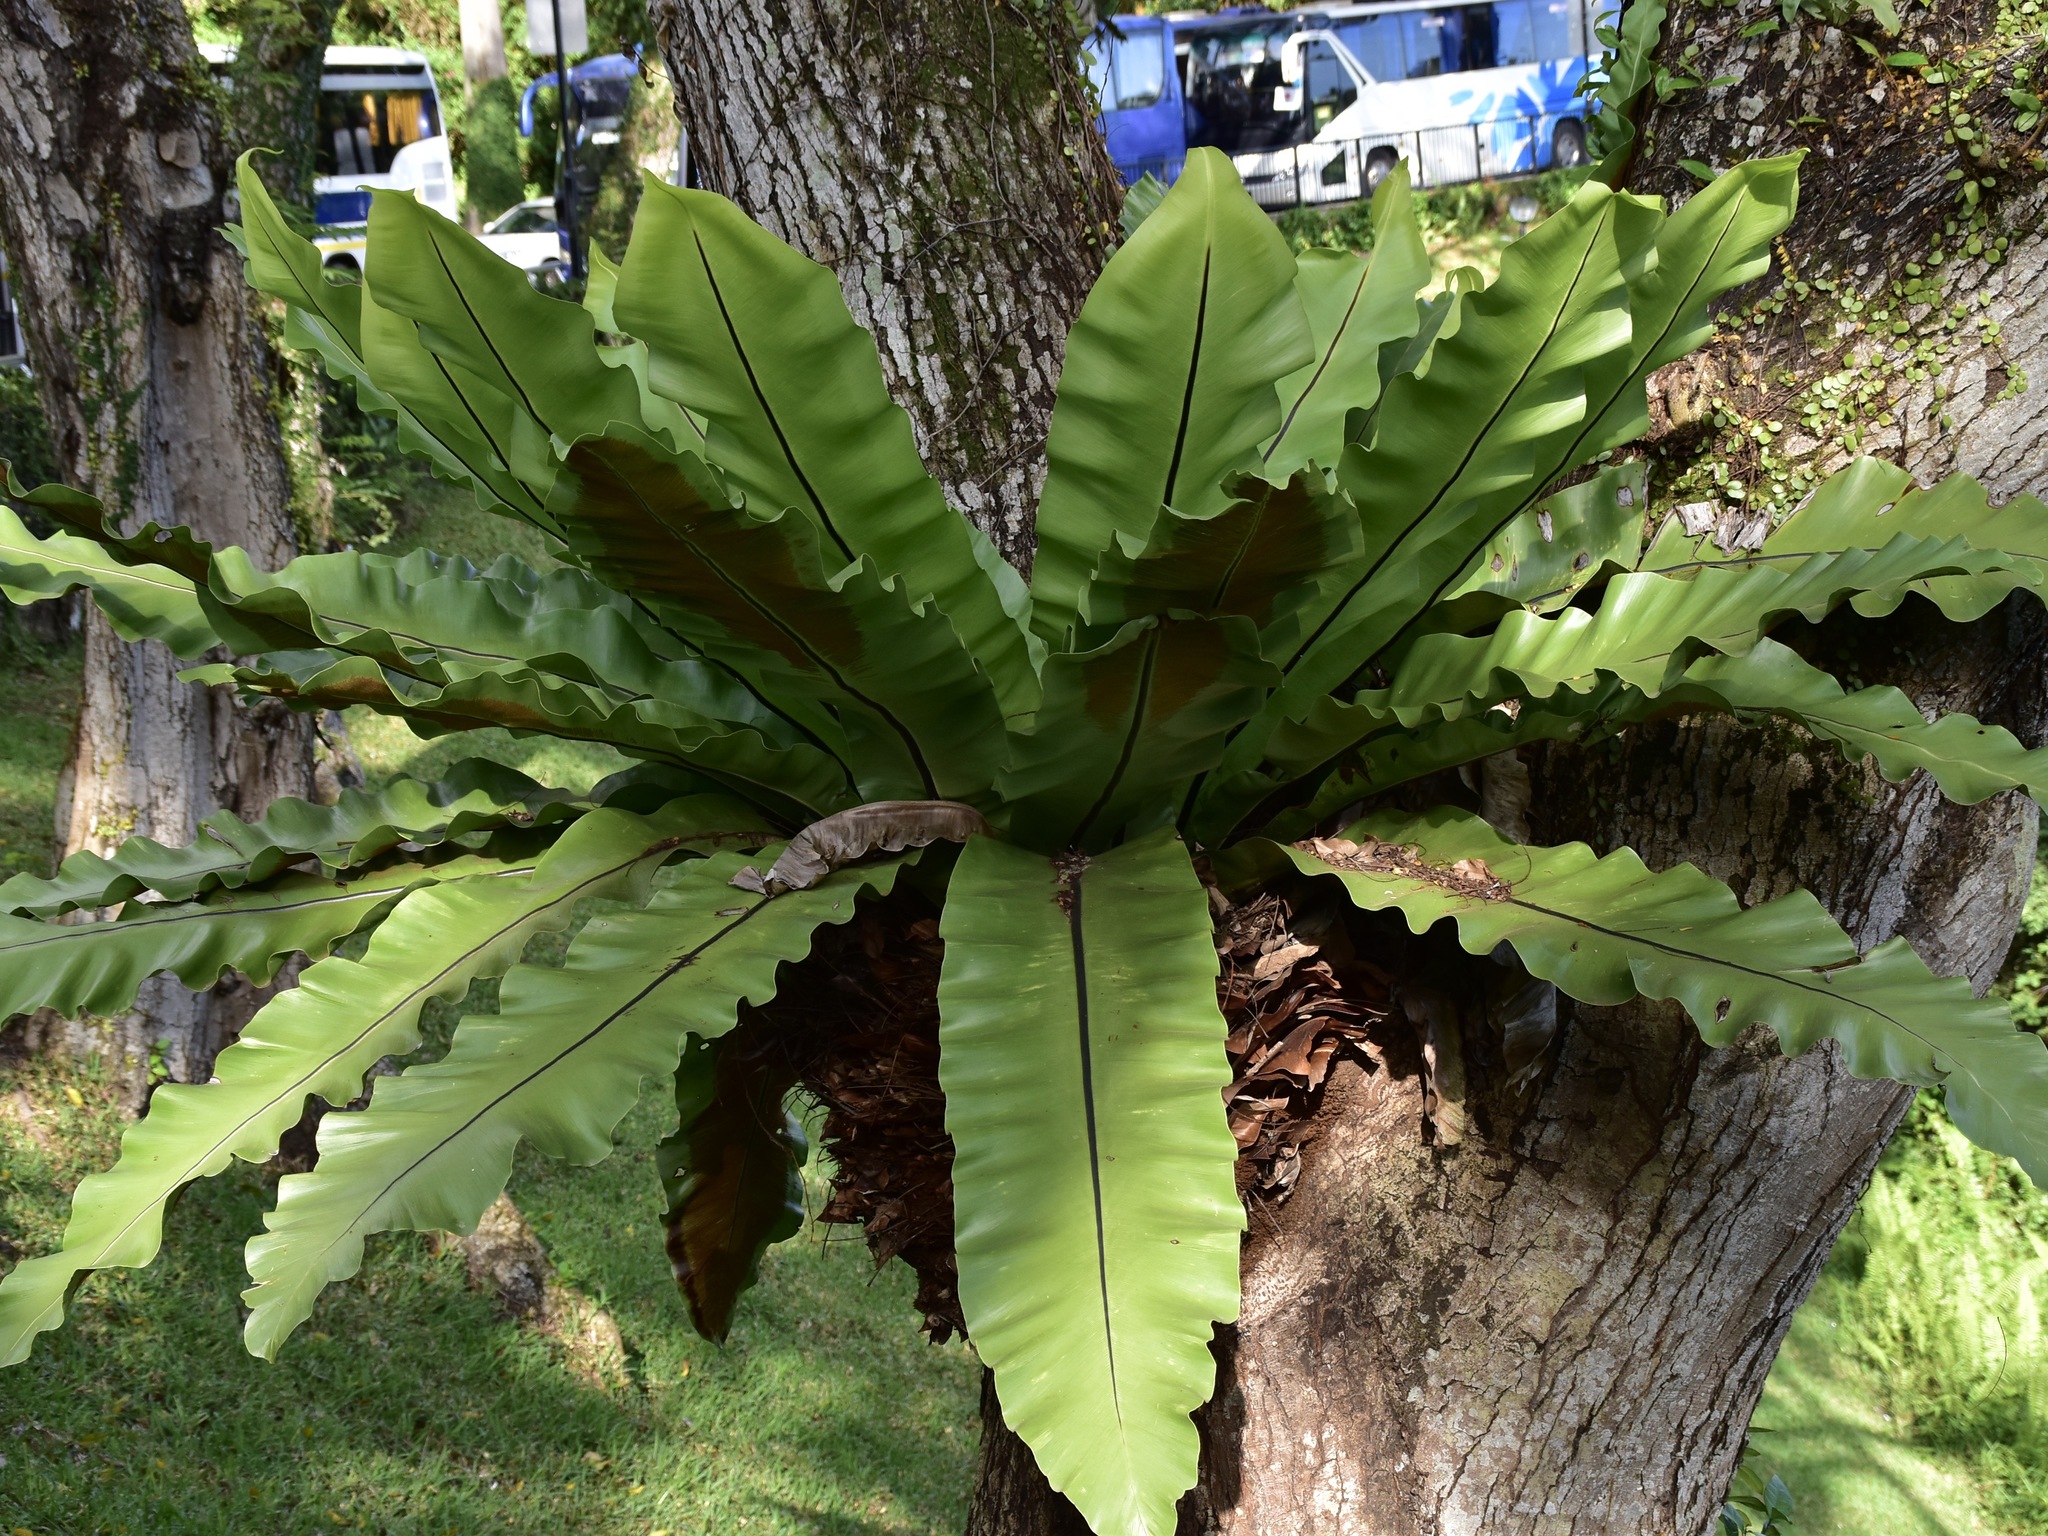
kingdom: Plantae
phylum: Tracheophyta
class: Polypodiopsida
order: Polypodiales
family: Aspleniaceae
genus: Asplenium
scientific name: Asplenium nidus
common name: Bird's-nest fern
